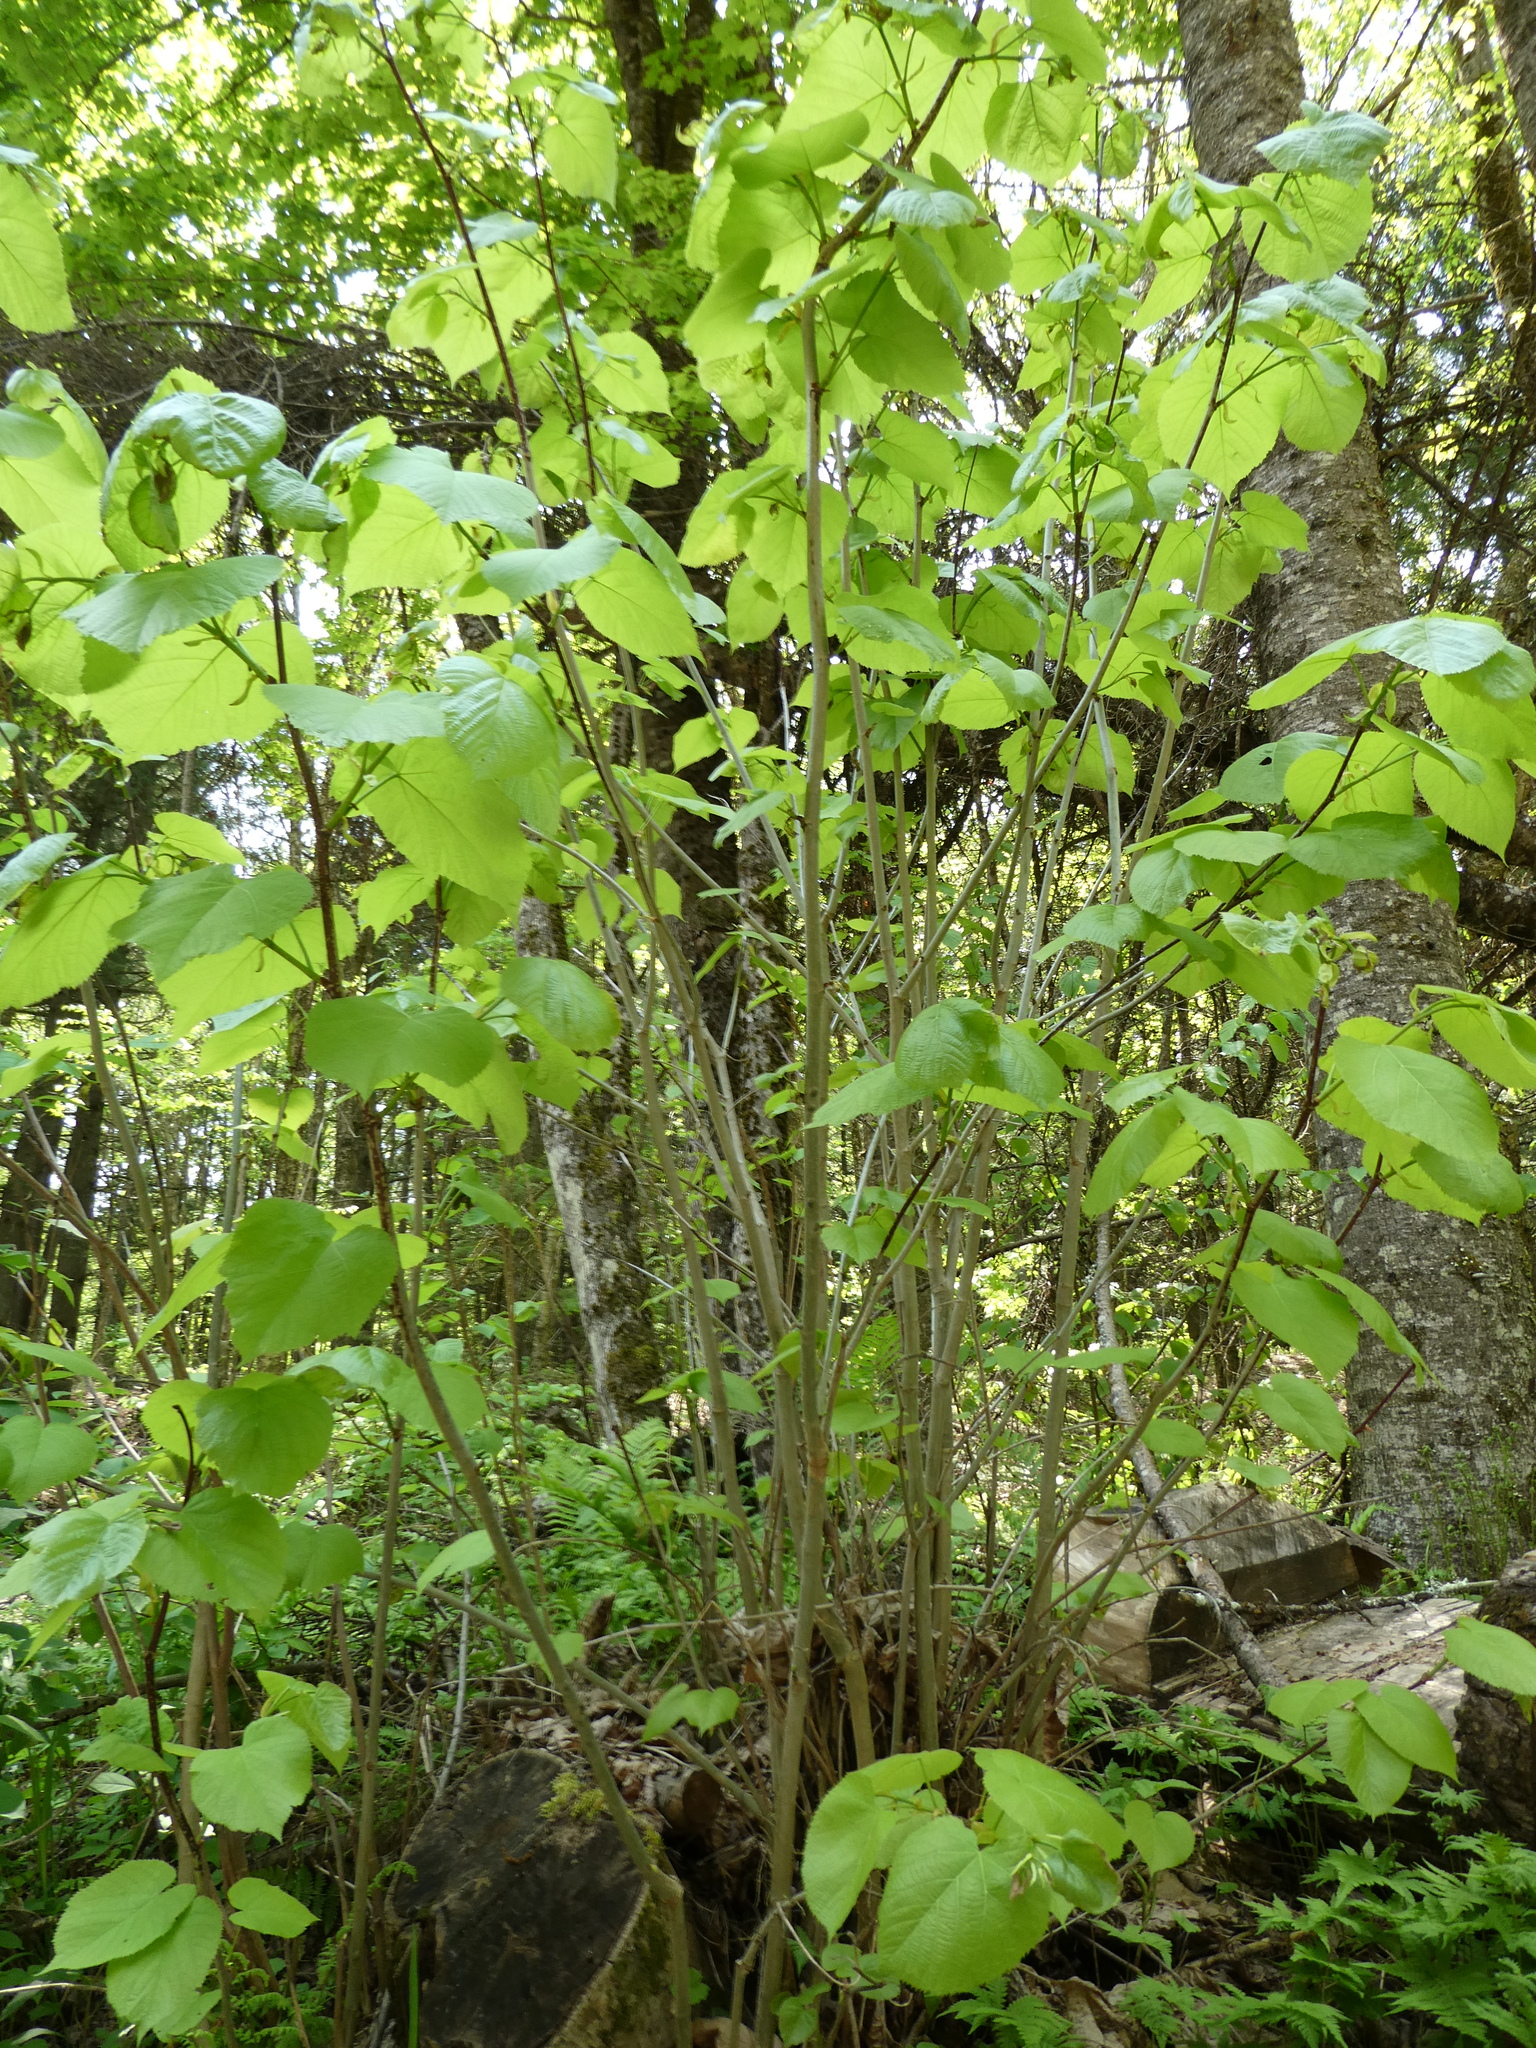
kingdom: Plantae
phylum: Tracheophyta
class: Magnoliopsida
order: Malvales
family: Malvaceae
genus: Tilia
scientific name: Tilia americana
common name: Basswood
